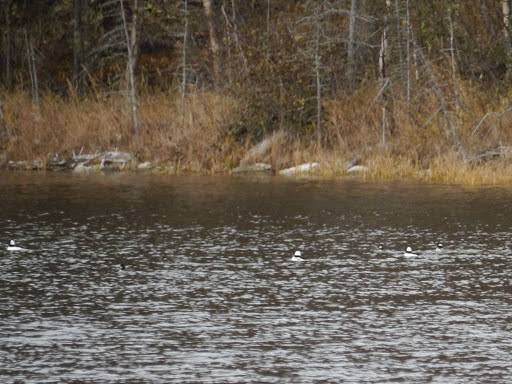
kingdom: Animalia
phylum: Chordata
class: Aves
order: Anseriformes
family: Anatidae
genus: Bucephala
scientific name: Bucephala albeola
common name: Bufflehead
